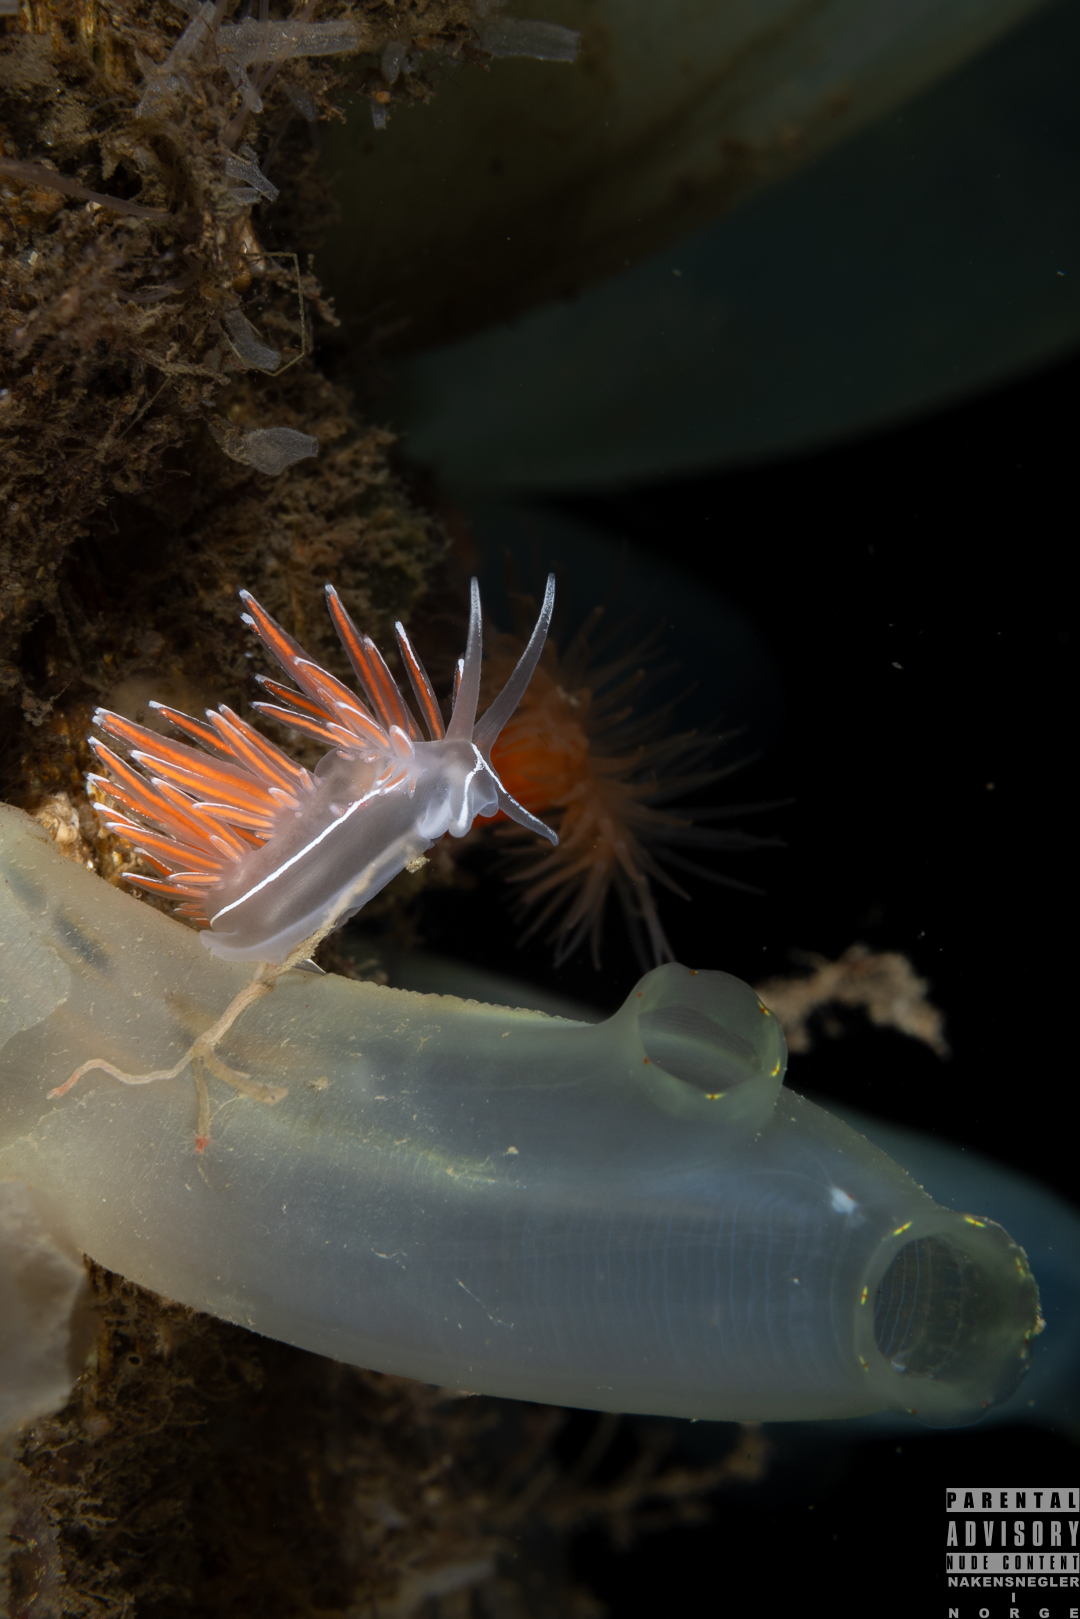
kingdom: Animalia
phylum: Mollusca
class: Gastropoda
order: Nudibranchia
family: Coryphellidae
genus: Coryphella
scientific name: Coryphella lineata
